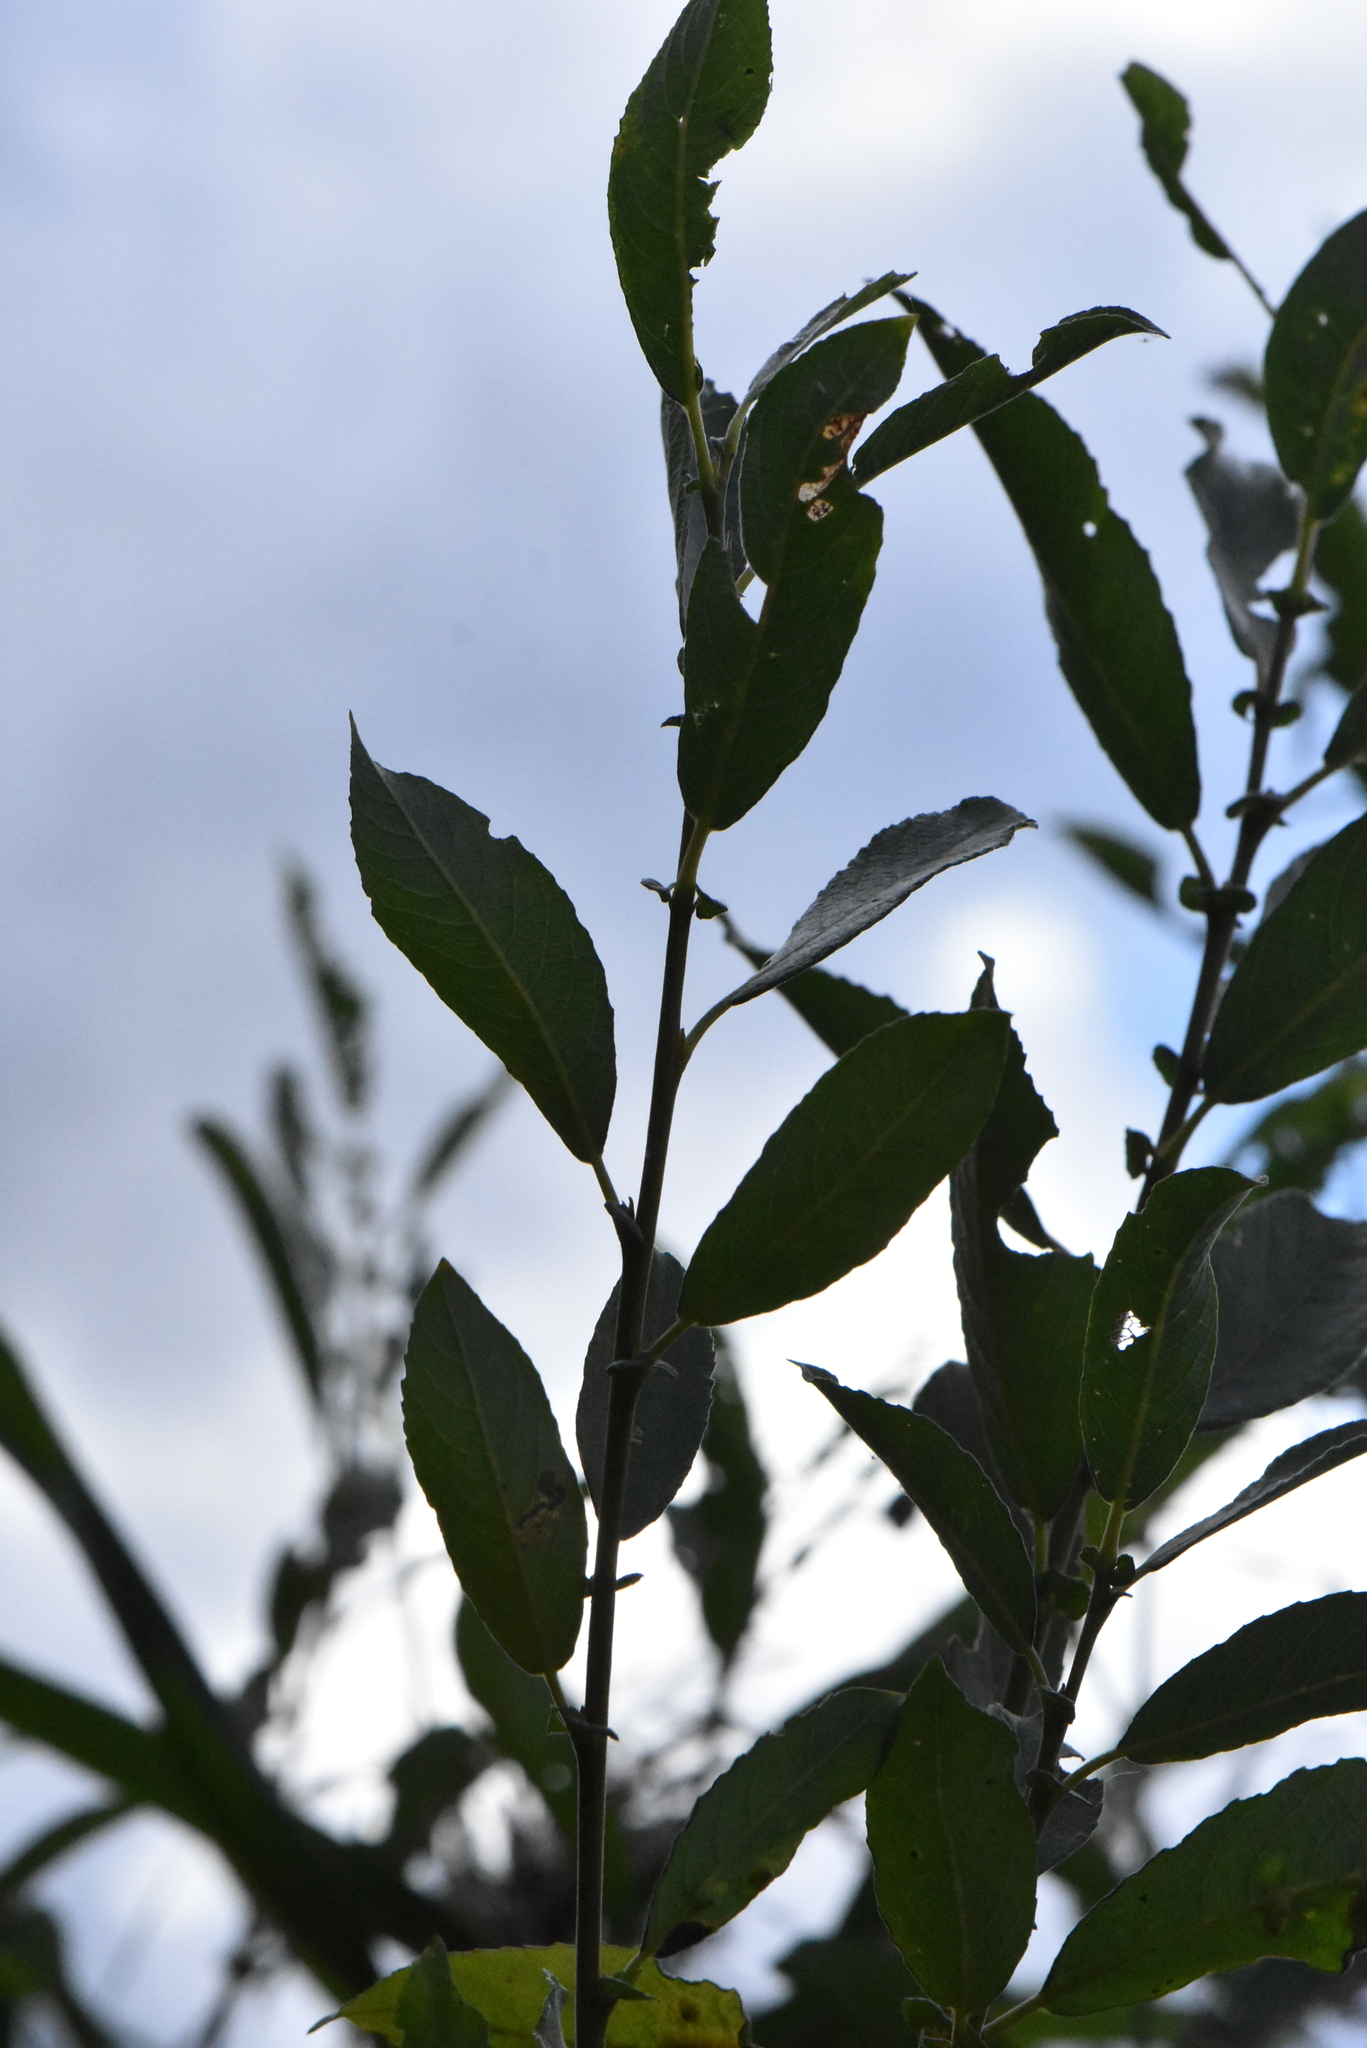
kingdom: Plantae
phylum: Tracheophyta
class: Magnoliopsida
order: Malpighiales
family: Salicaceae
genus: Salix
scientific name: Salix cinerea
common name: Common sallow
